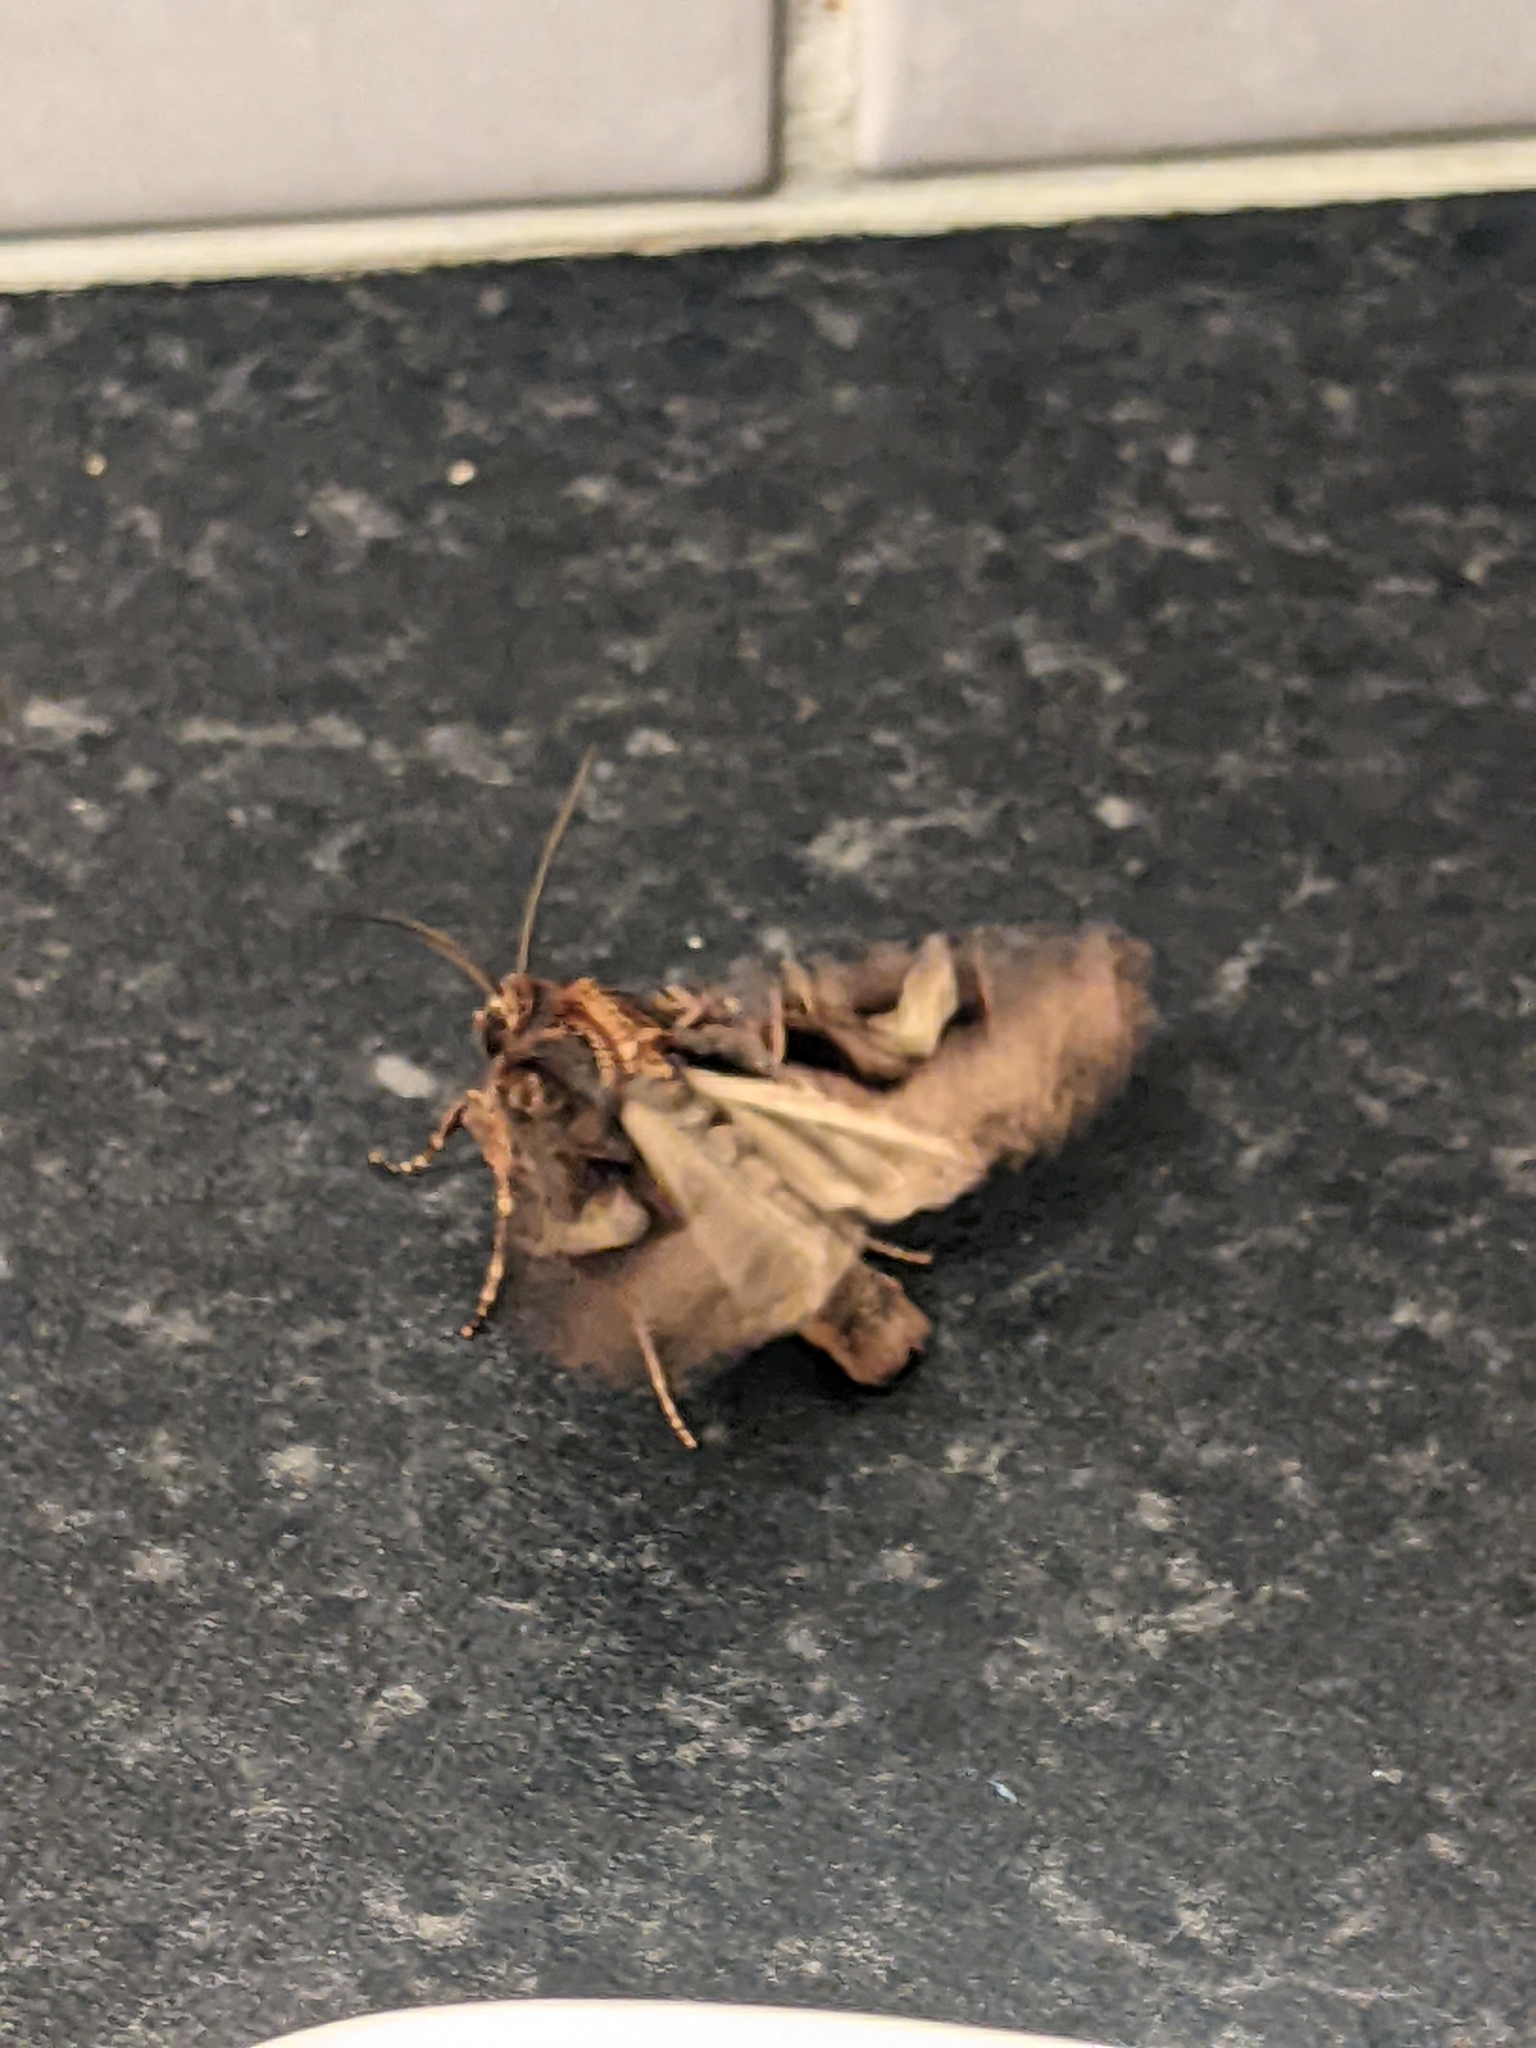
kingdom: Animalia
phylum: Arthropoda
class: Insecta
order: Lepidoptera
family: Noctuidae
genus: Trigonophora
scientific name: Trigonophora flammea
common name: Flame brocade
